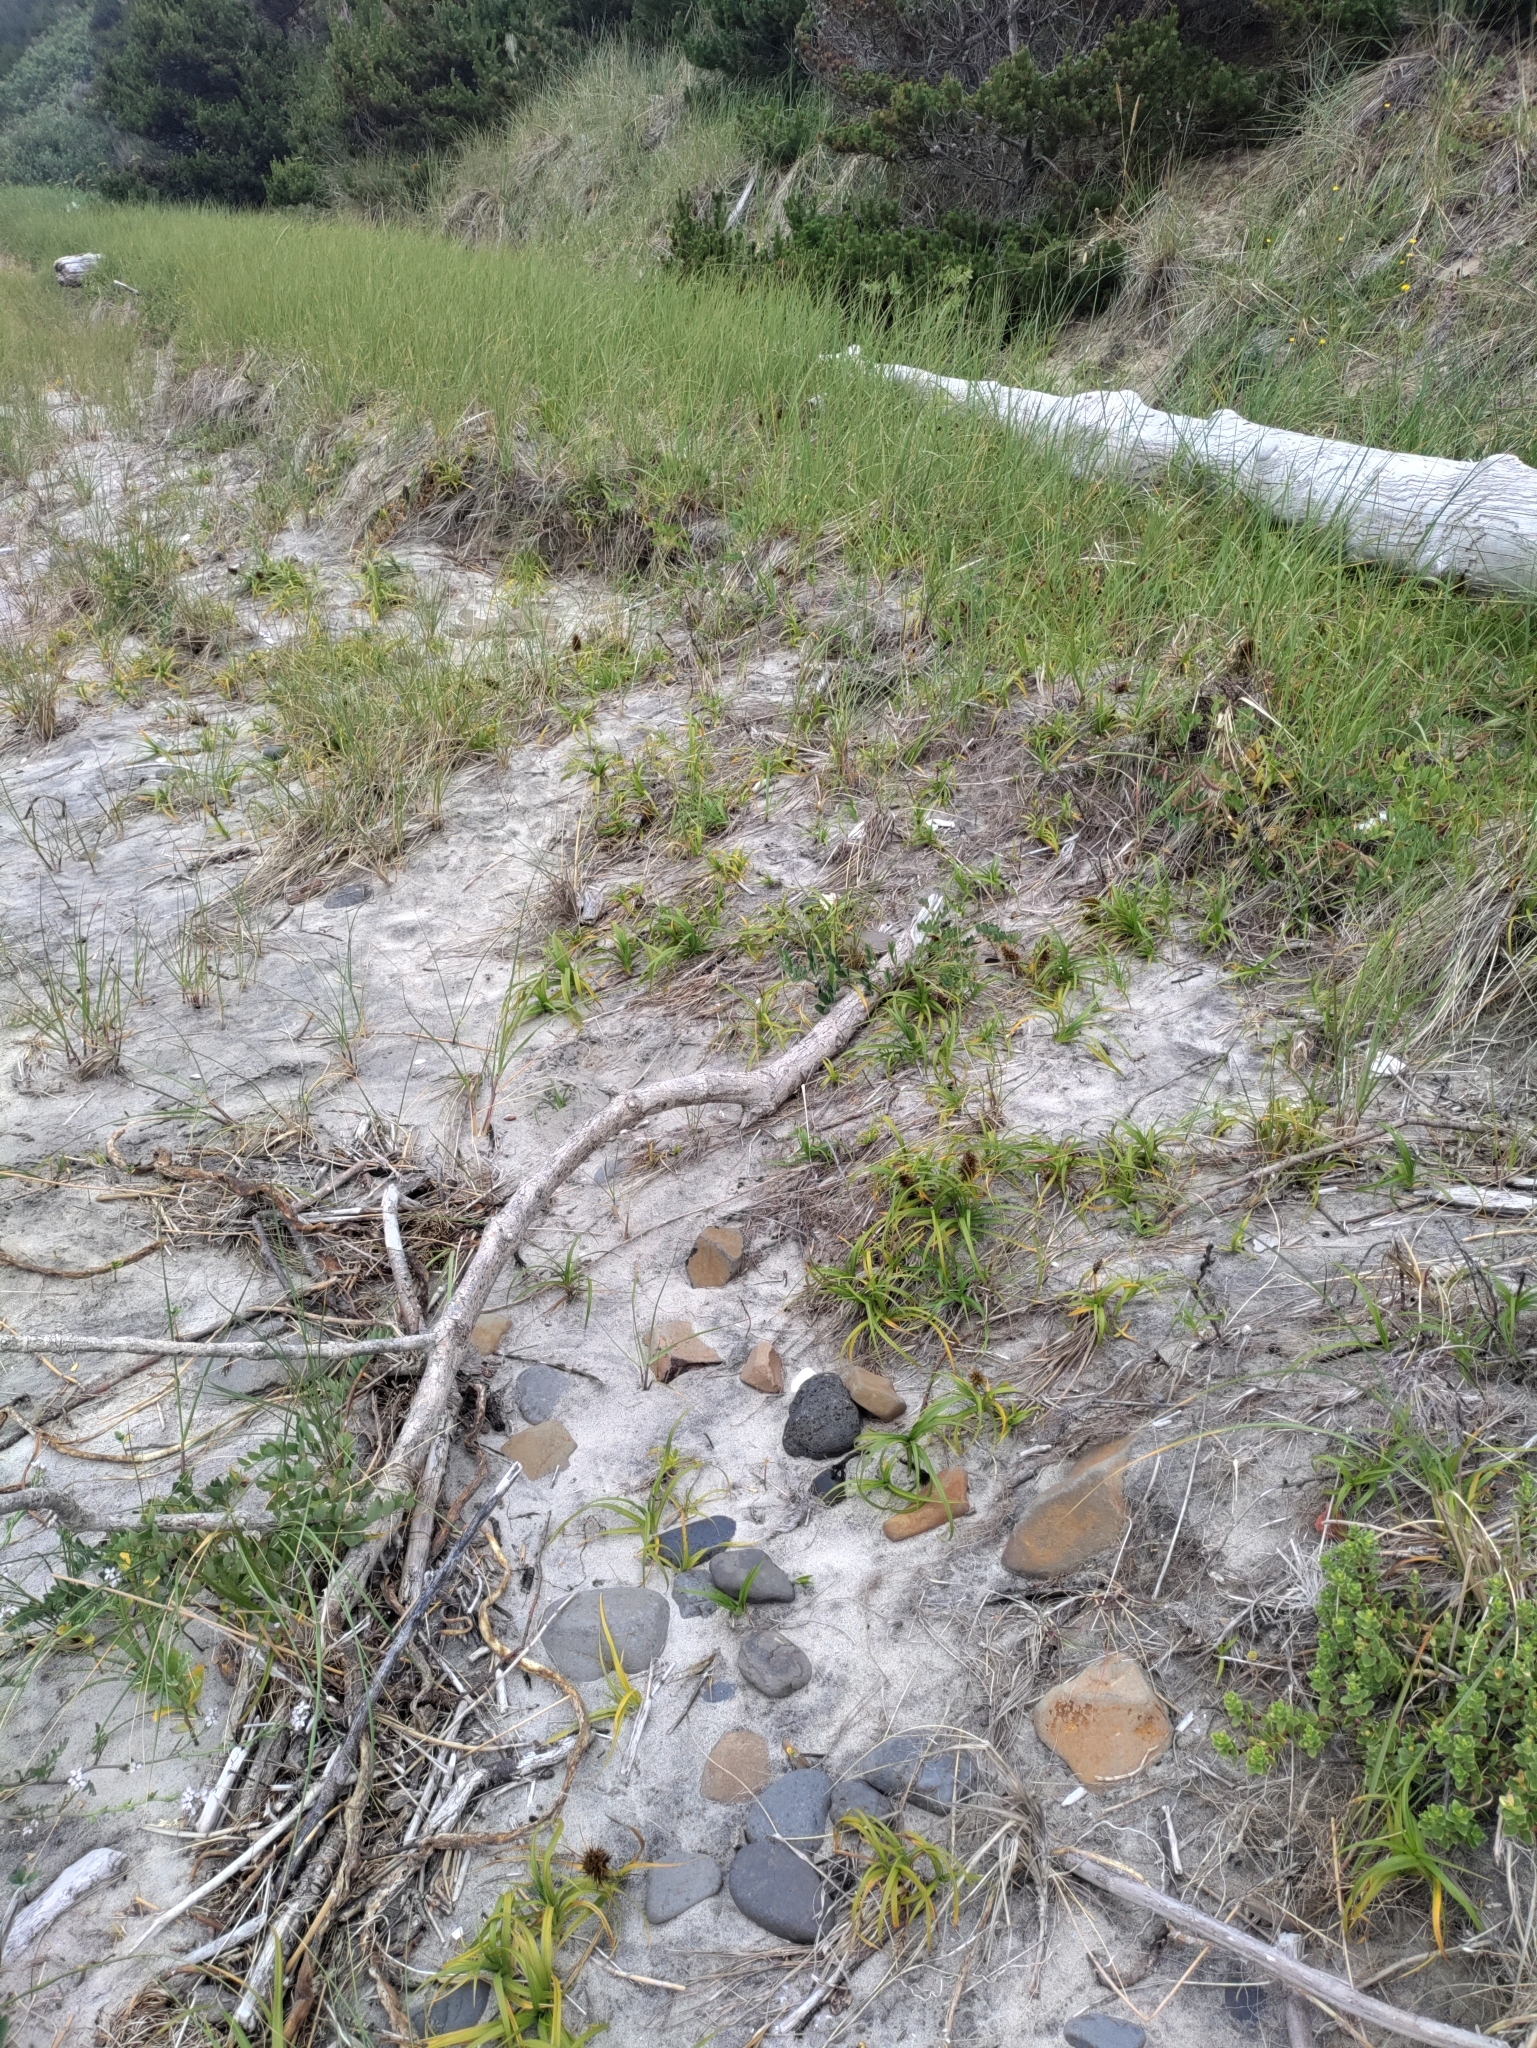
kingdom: Plantae
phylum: Tracheophyta
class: Liliopsida
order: Poales
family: Cyperaceae
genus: Carex
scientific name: Carex macrocephala
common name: Large-head sedge
